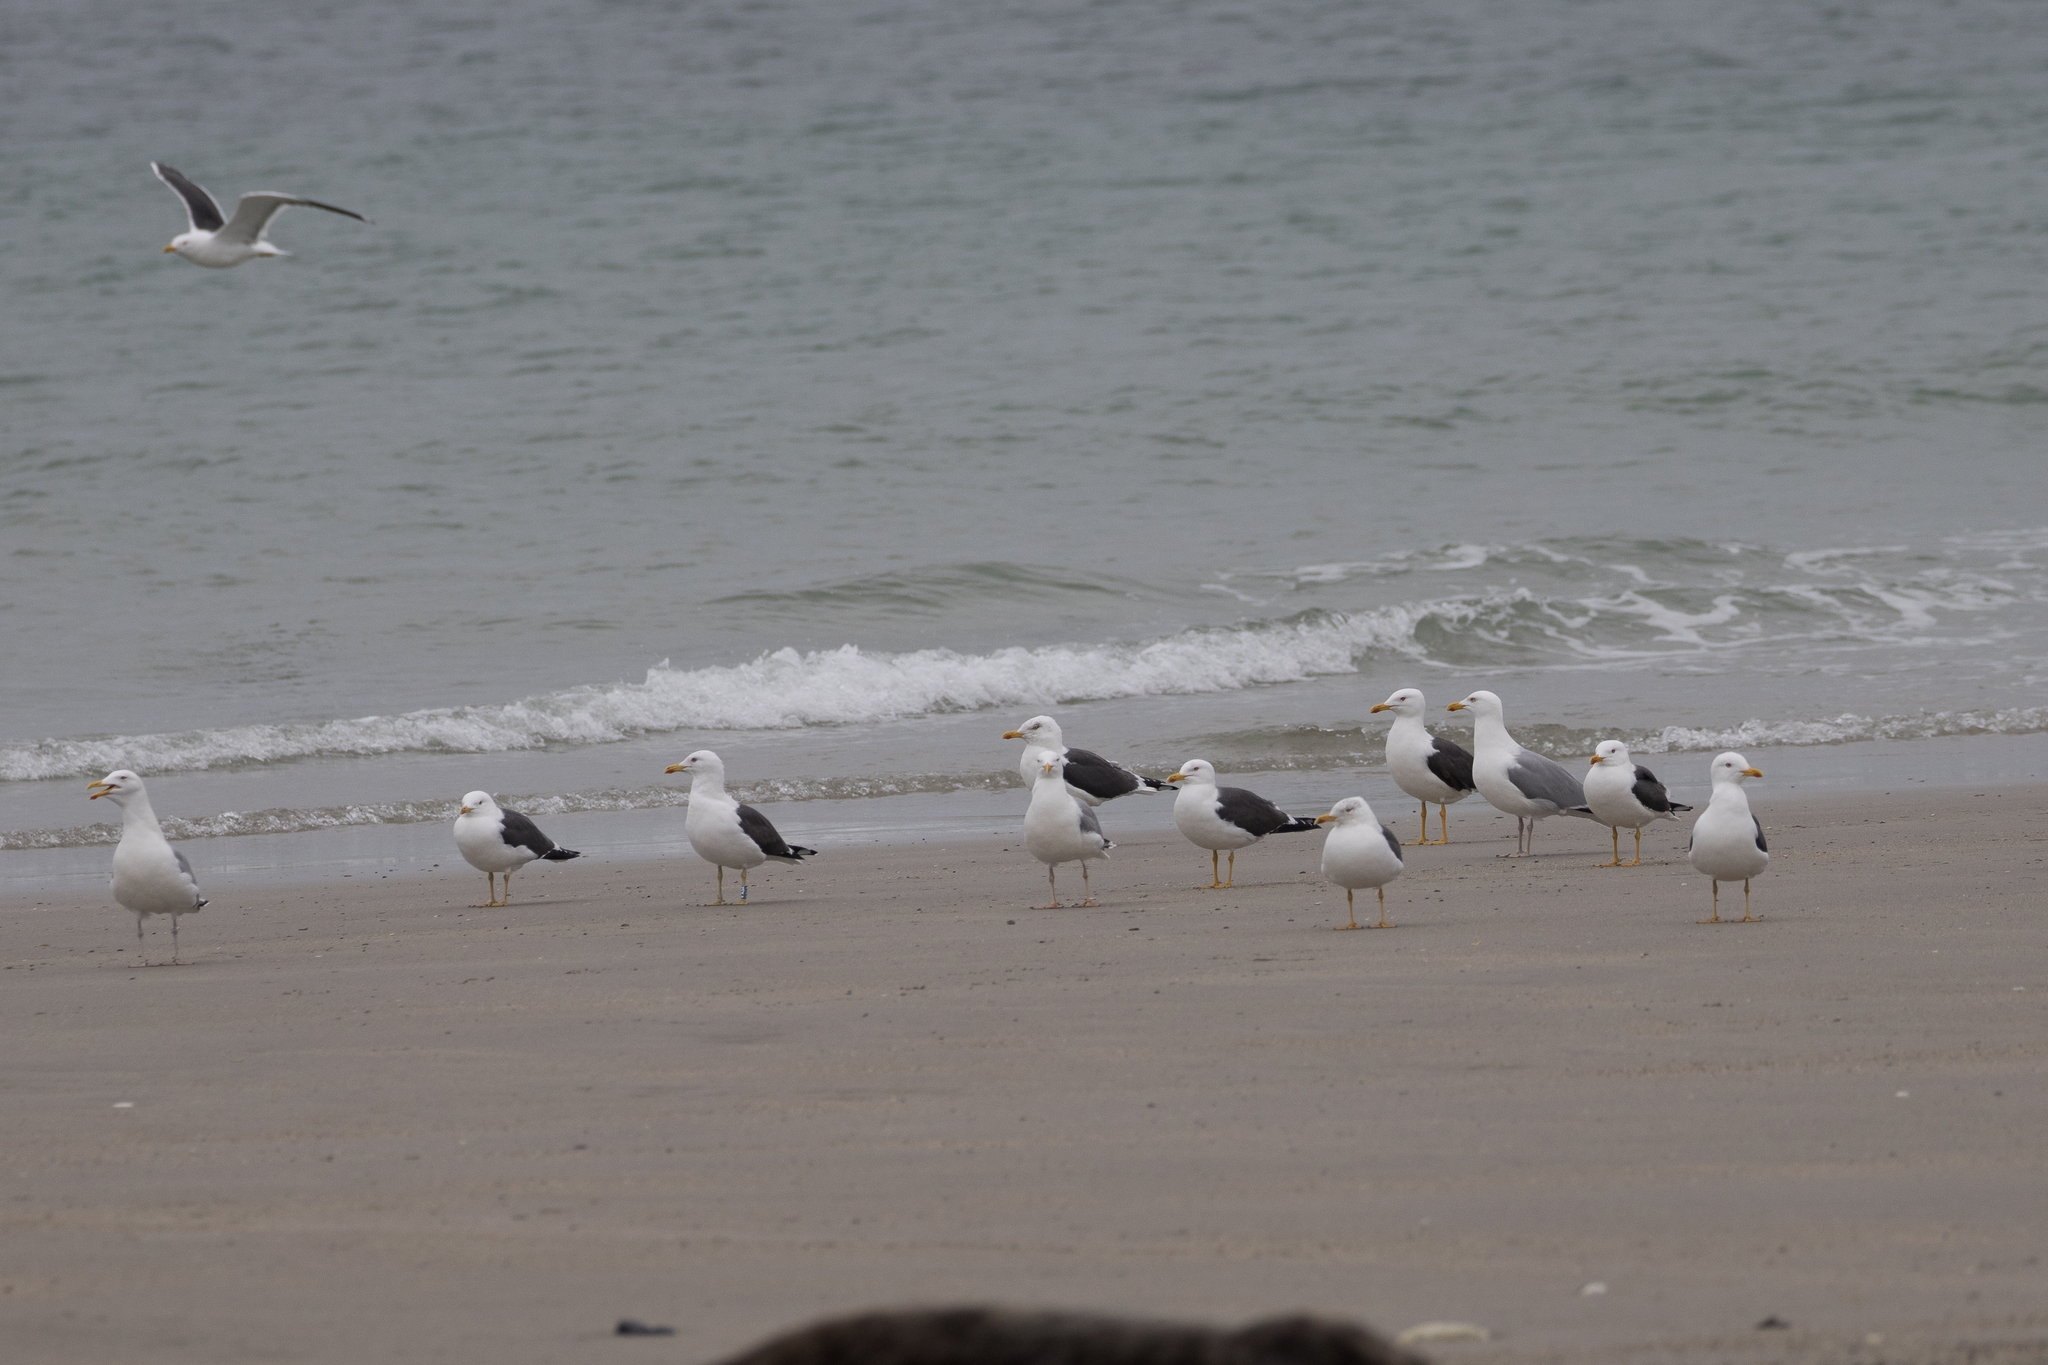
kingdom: Animalia
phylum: Chordata
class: Aves
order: Charadriiformes
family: Laridae
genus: Larus
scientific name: Larus fuscus
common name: Lesser black-backed gull
